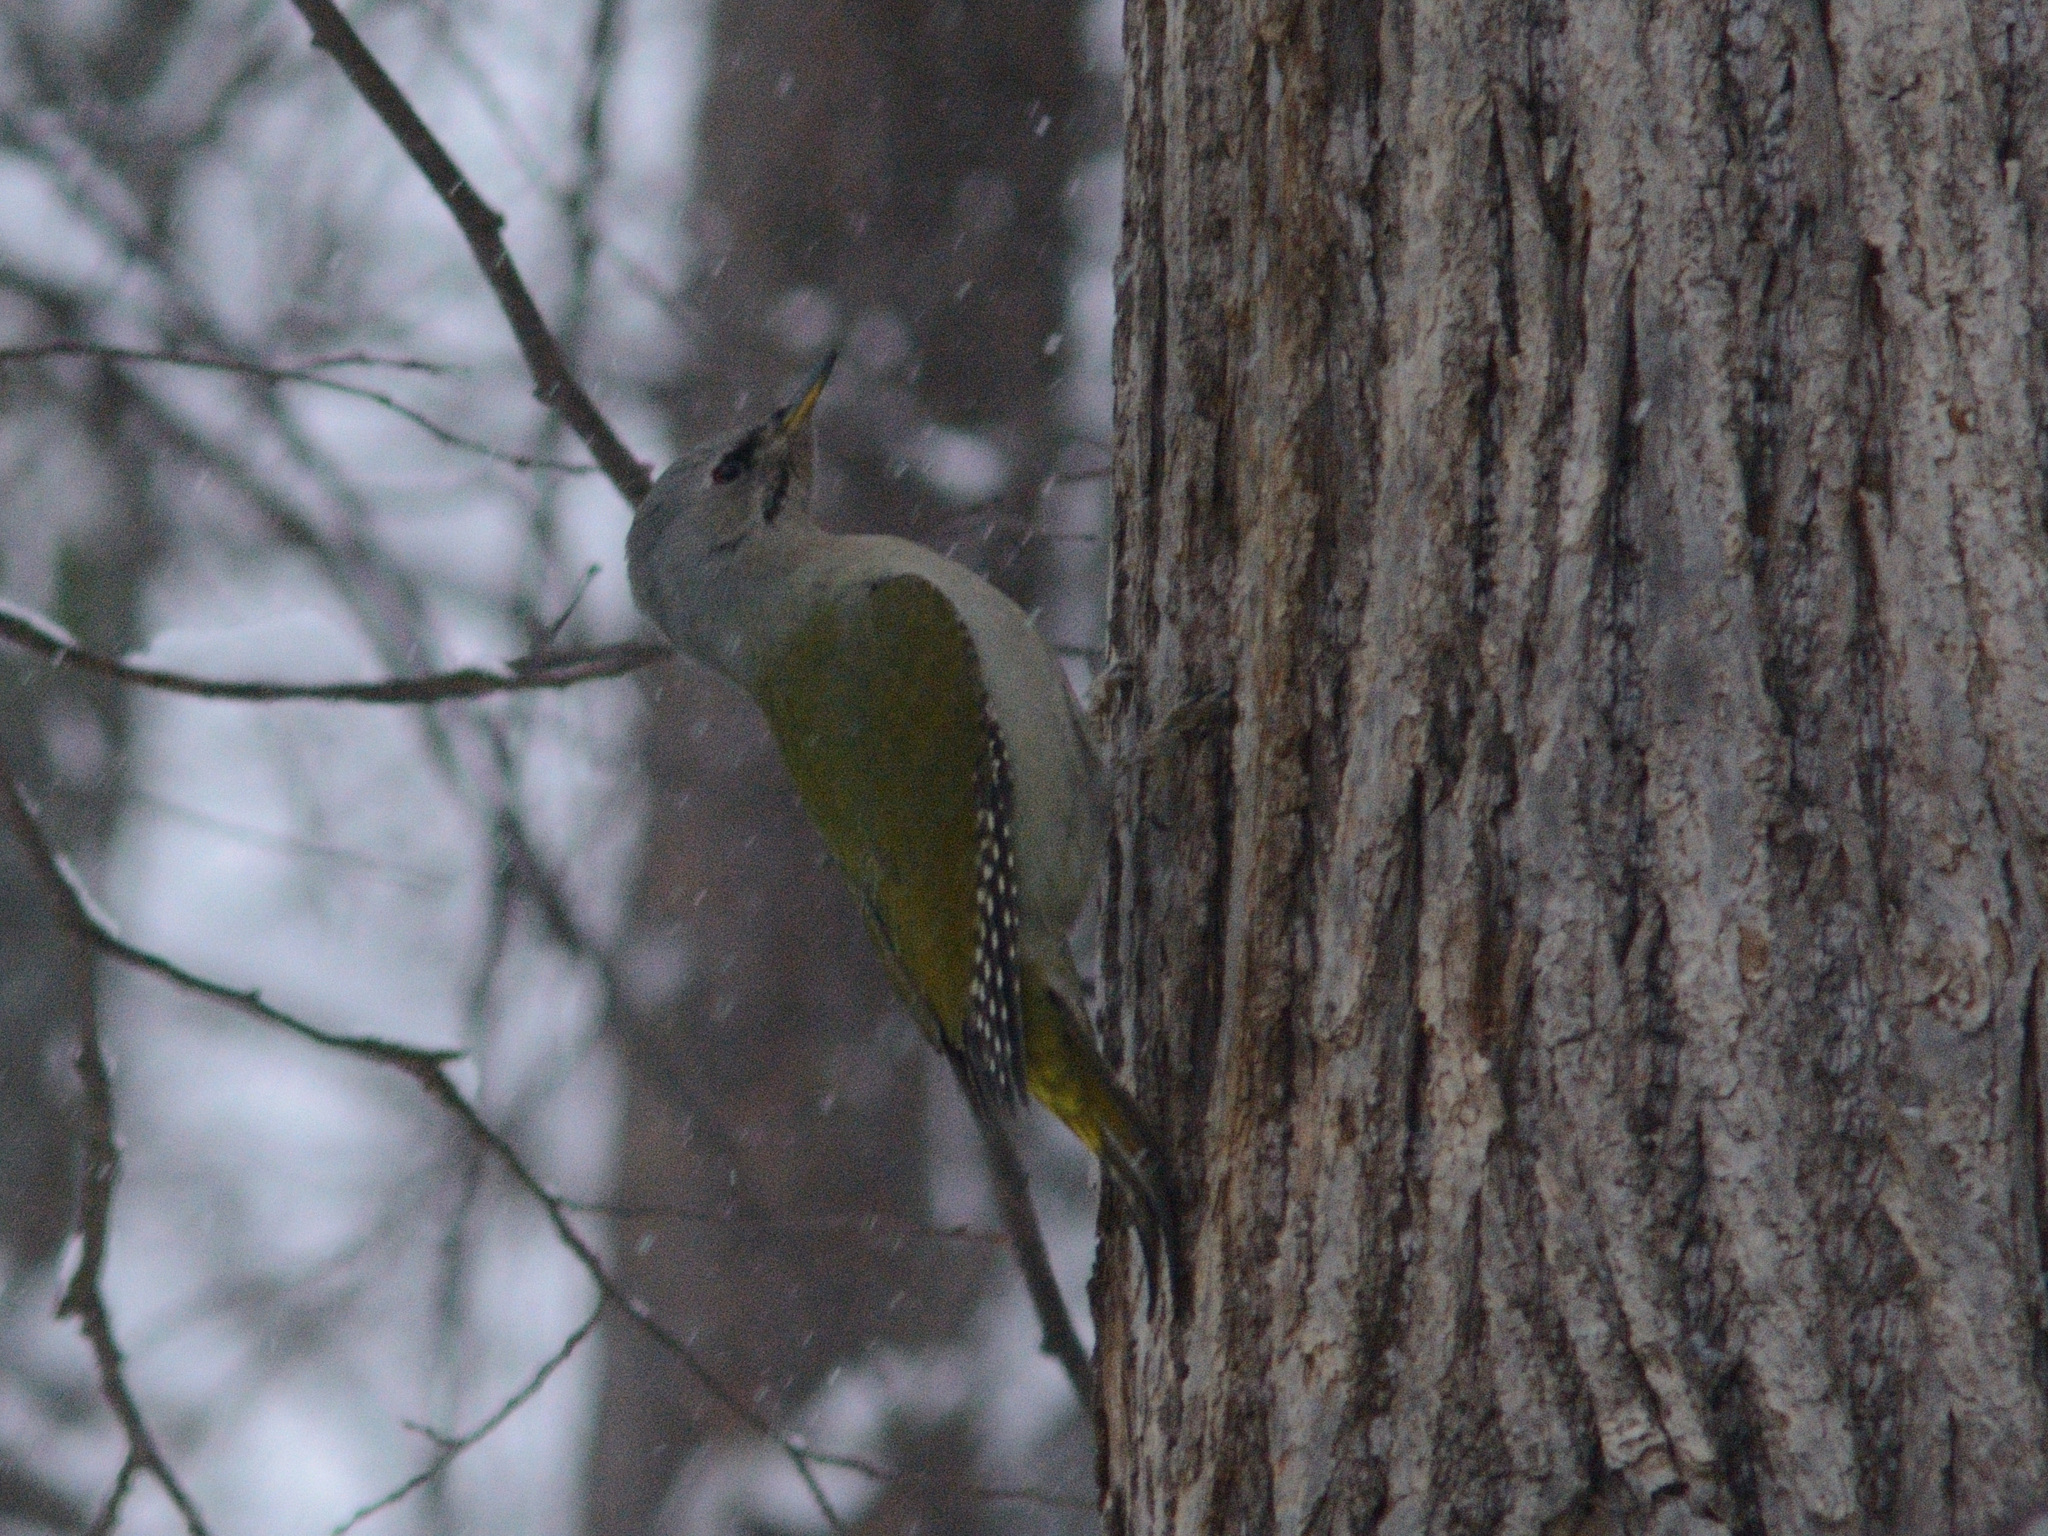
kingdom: Animalia
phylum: Chordata
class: Aves
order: Piciformes
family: Picidae
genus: Picus
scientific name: Picus canus
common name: Grey-headed woodpecker
